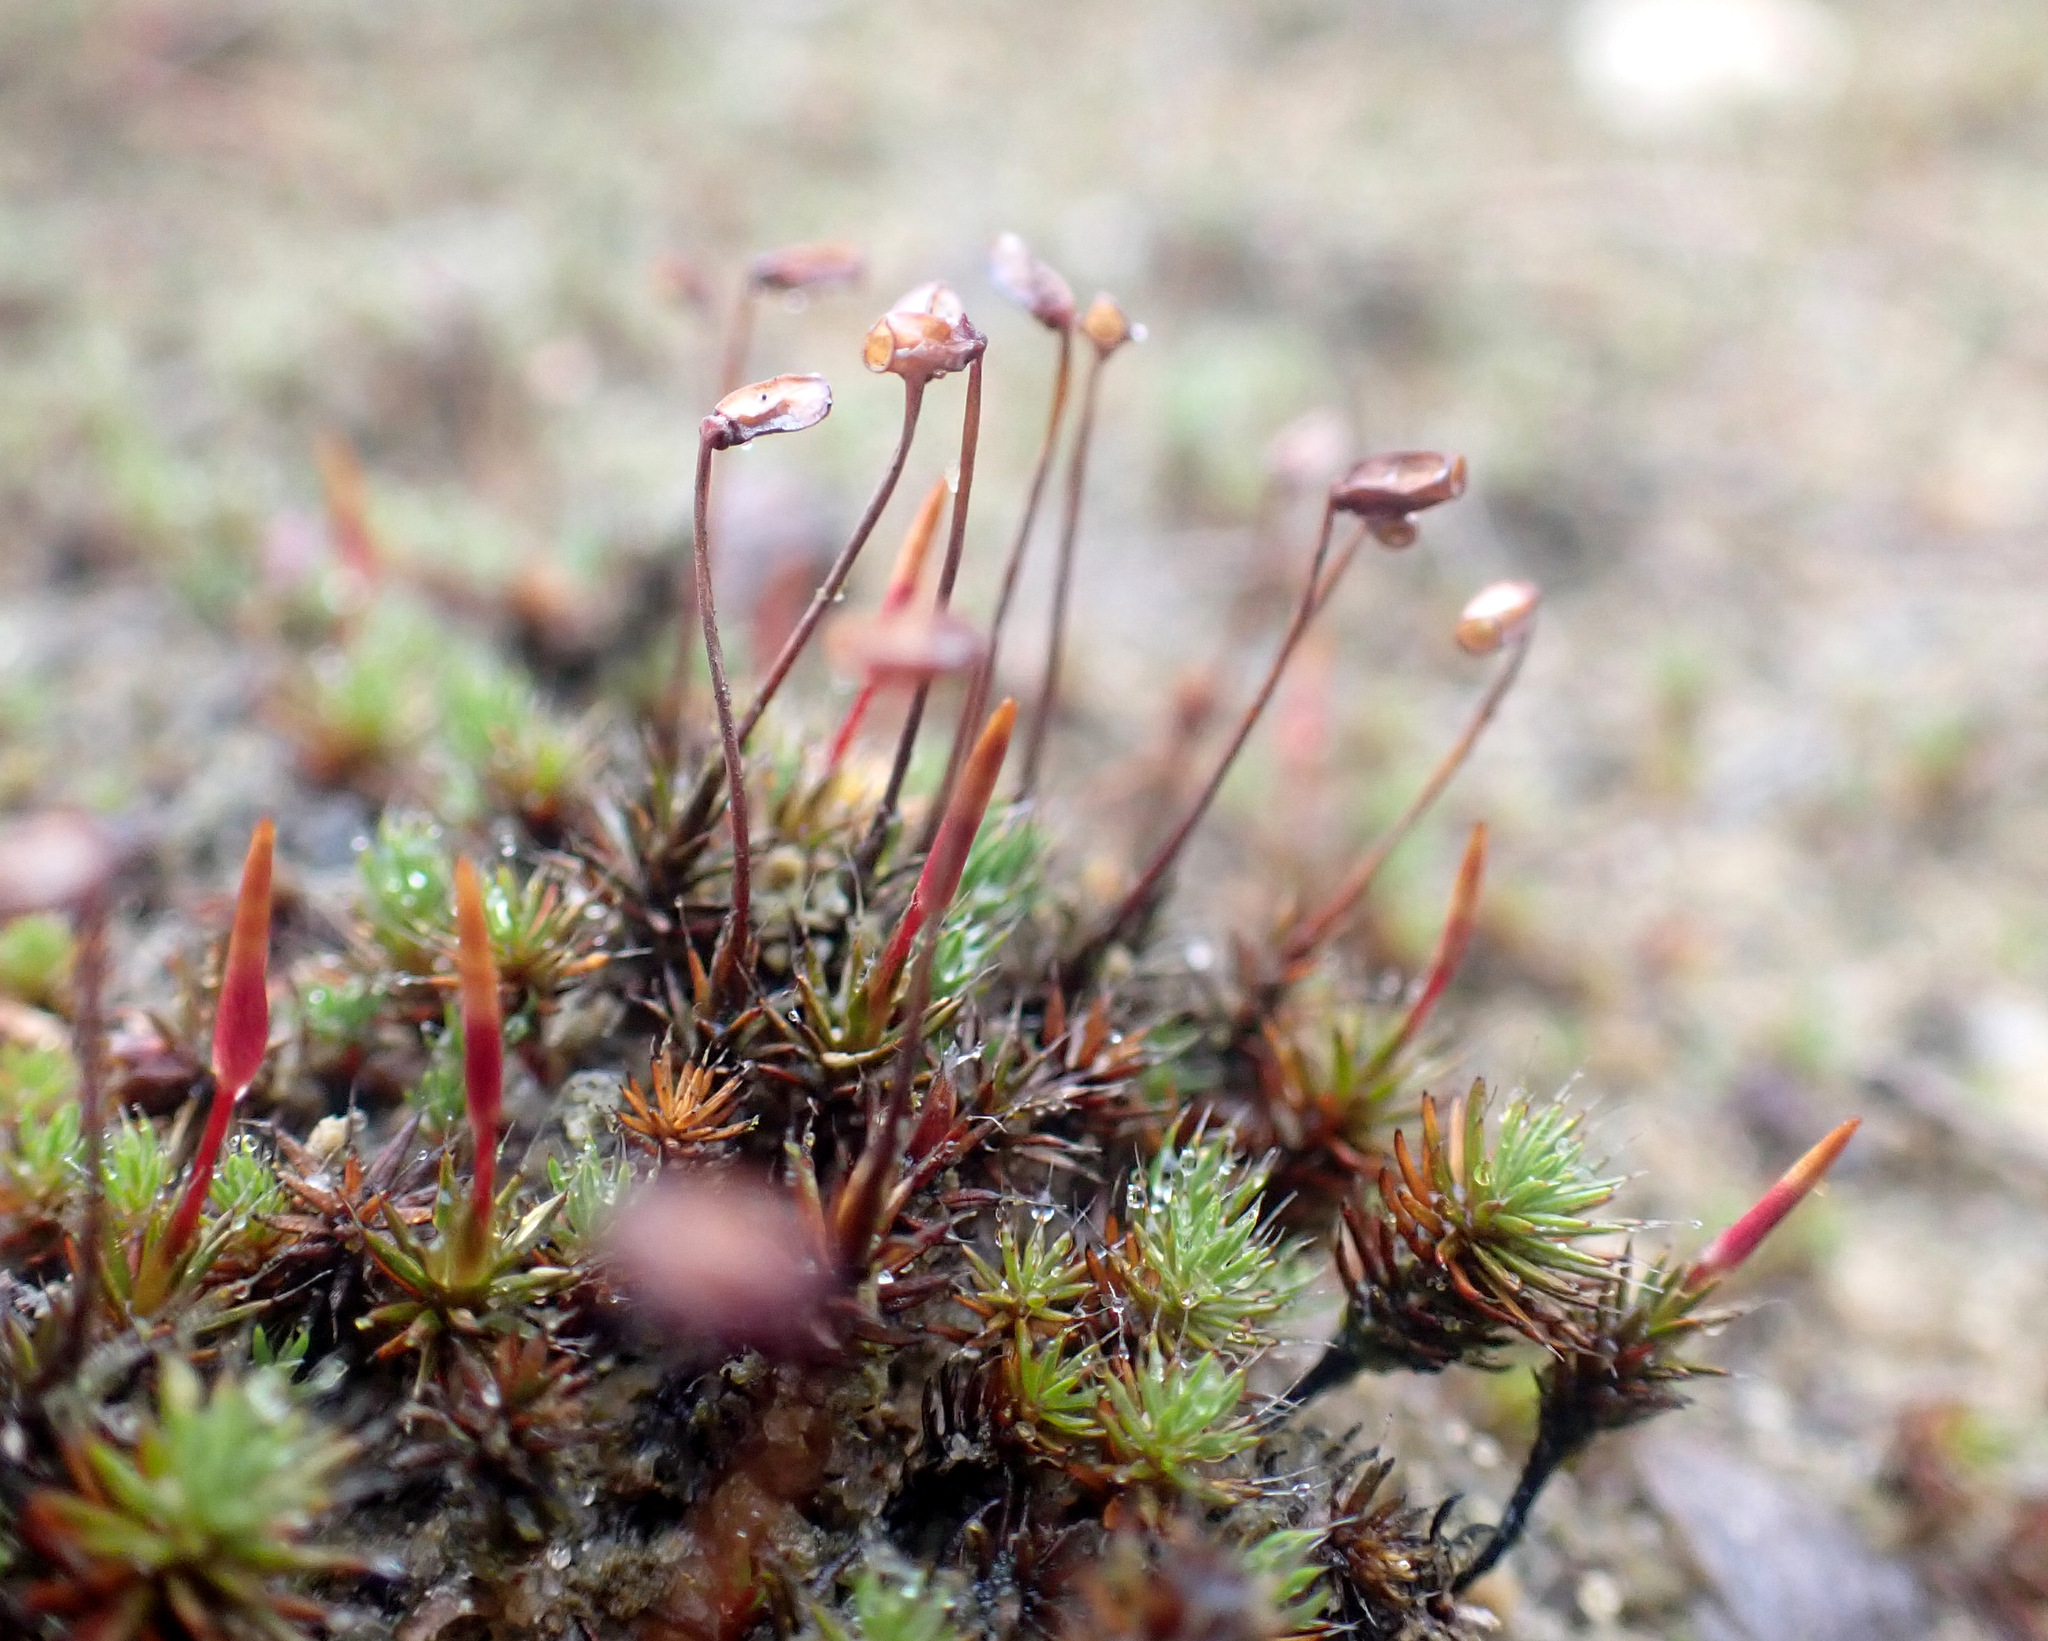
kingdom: Plantae
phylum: Bryophyta
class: Polytrichopsida
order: Polytrichales
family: Polytrichaceae
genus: Polytrichum
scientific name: Polytrichum piliferum
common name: Bristly haircap
